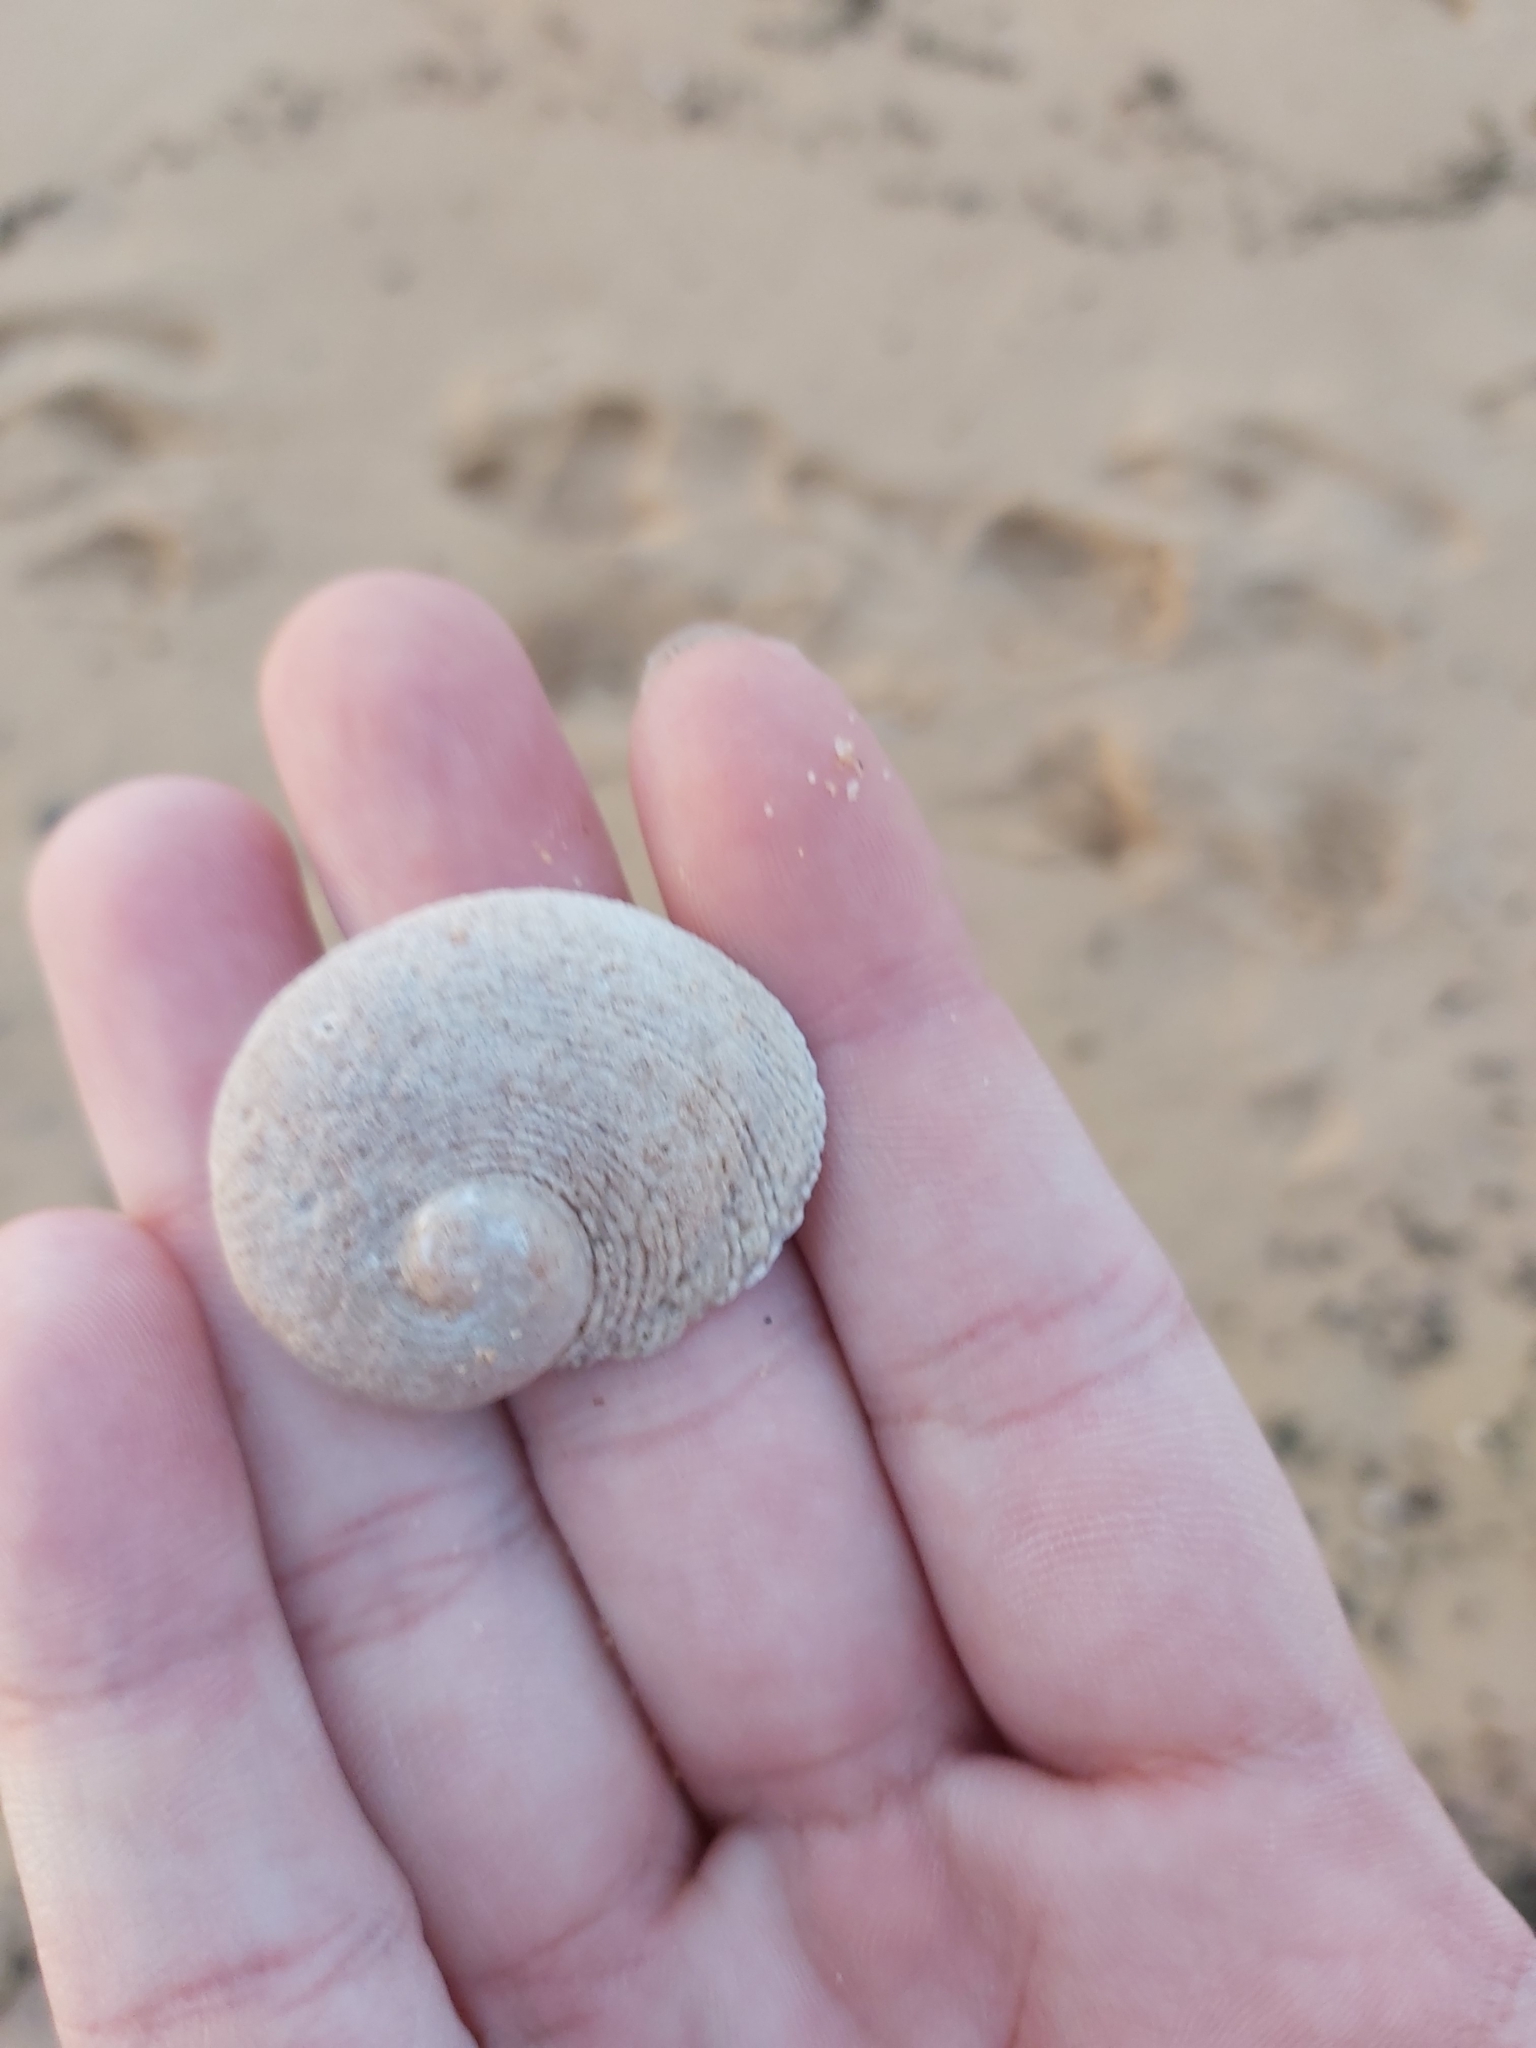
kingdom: Animalia
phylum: Mollusca
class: Gastropoda
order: Seguenziida
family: Chilodontaidae
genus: Granata
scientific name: Granata imbricata
